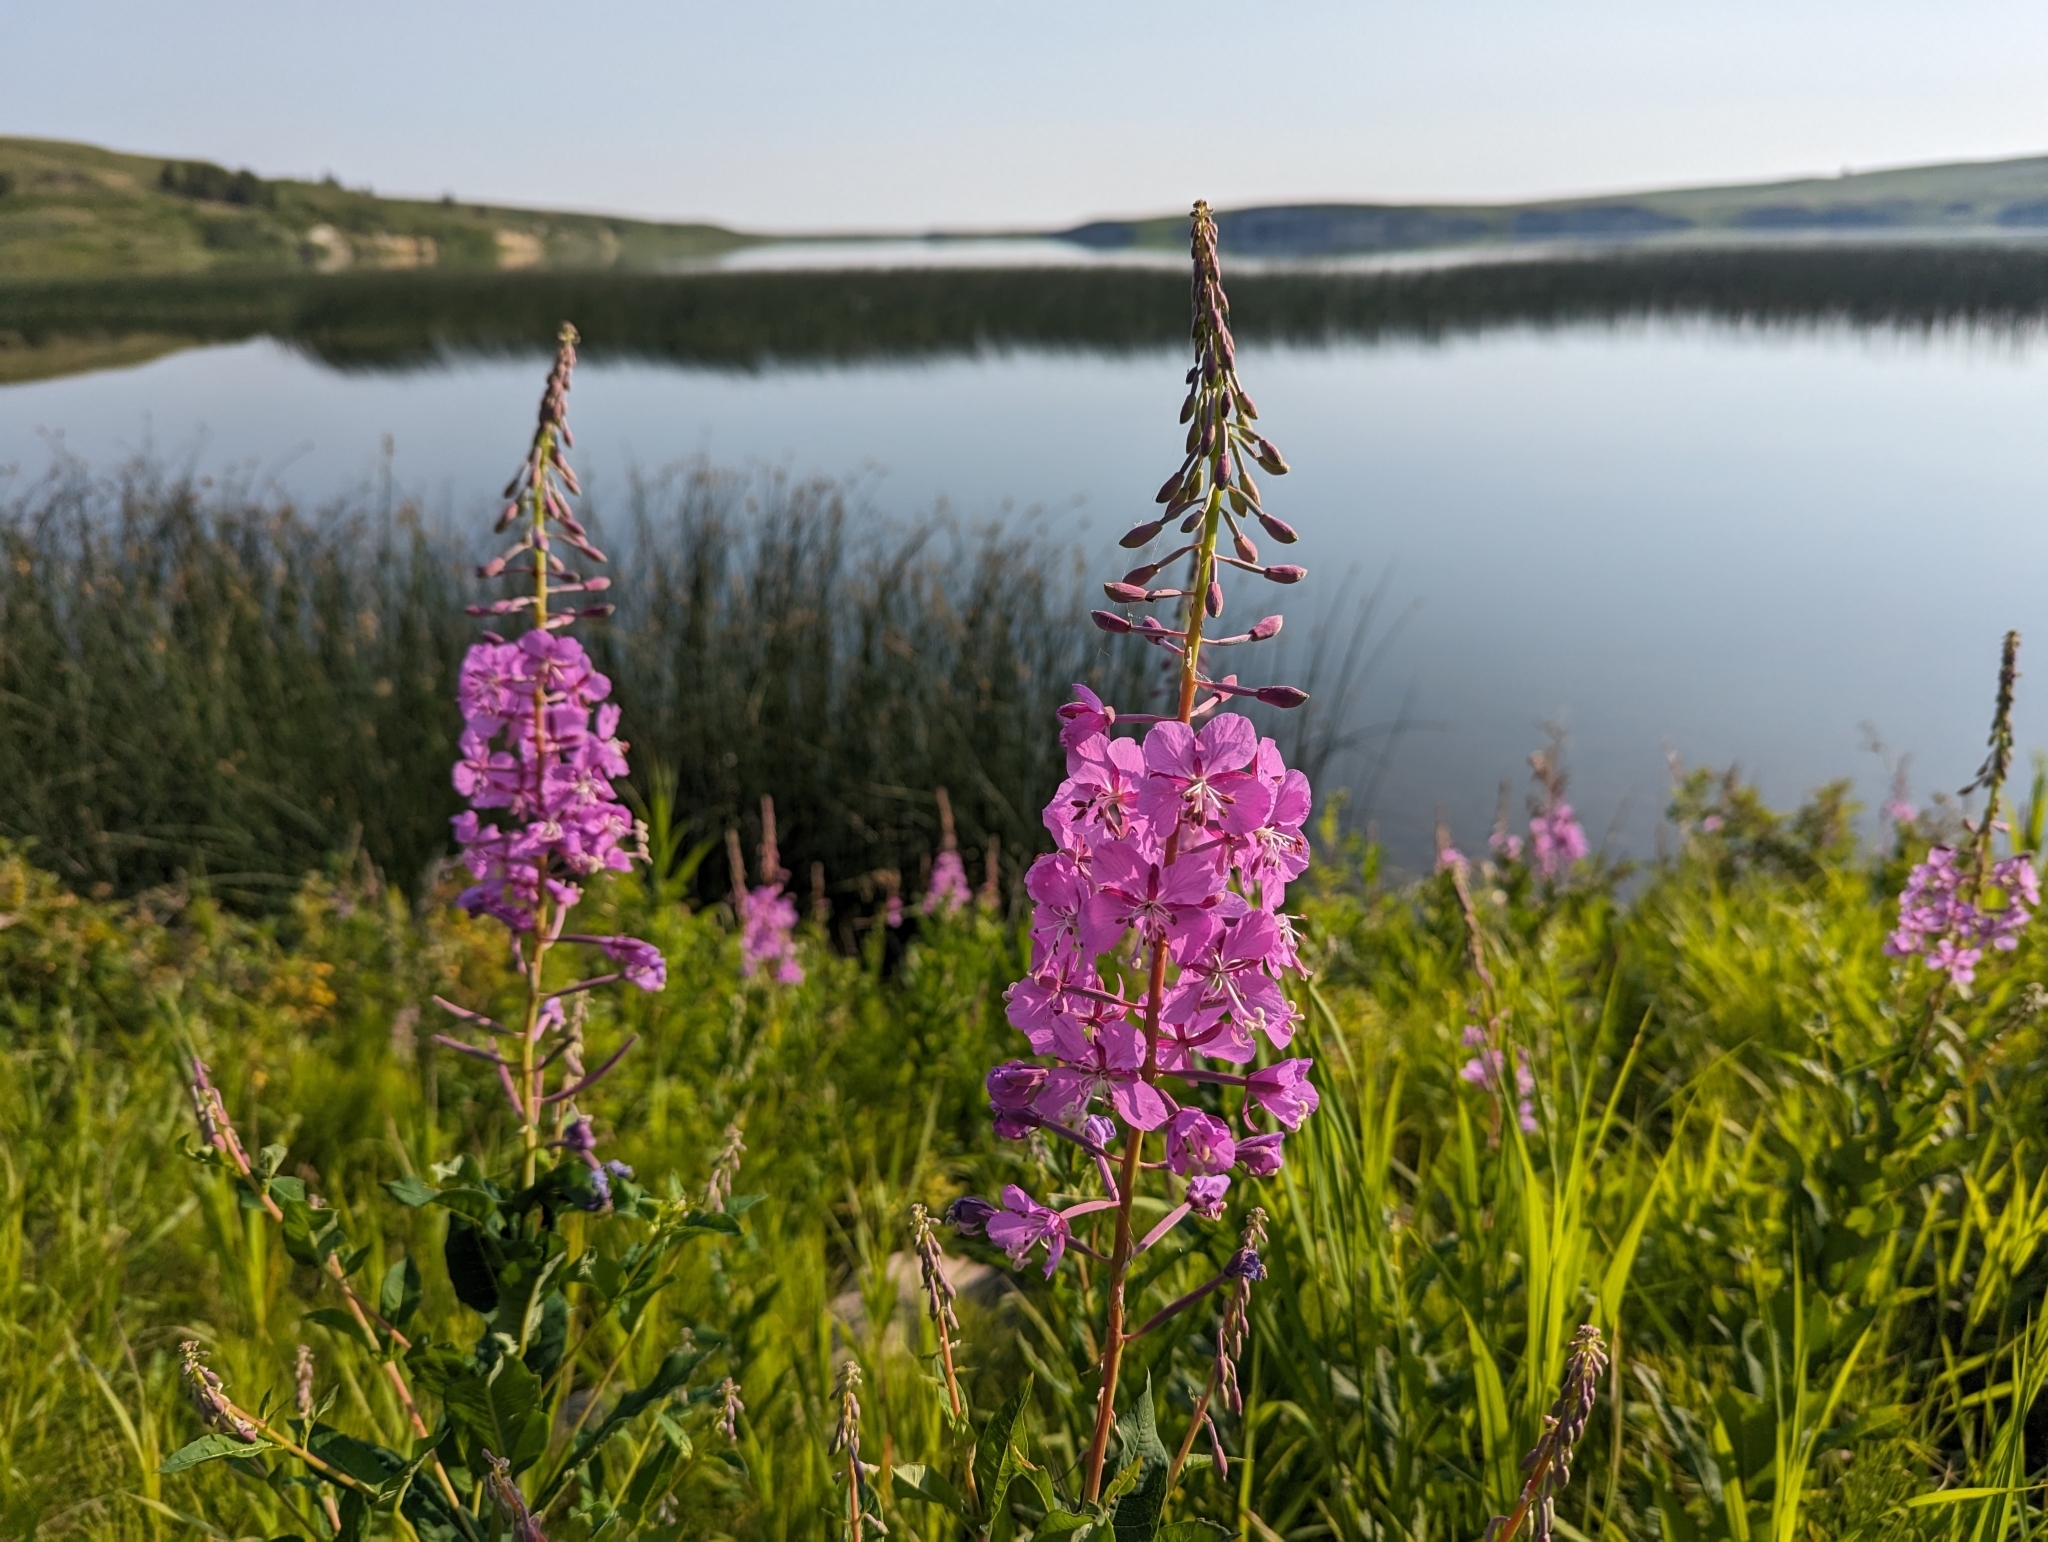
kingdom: Plantae
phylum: Tracheophyta
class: Magnoliopsida
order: Myrtales
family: Onagraceae
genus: Chamaenerion
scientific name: Chamaenerion angustifolium
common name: Fireweed
